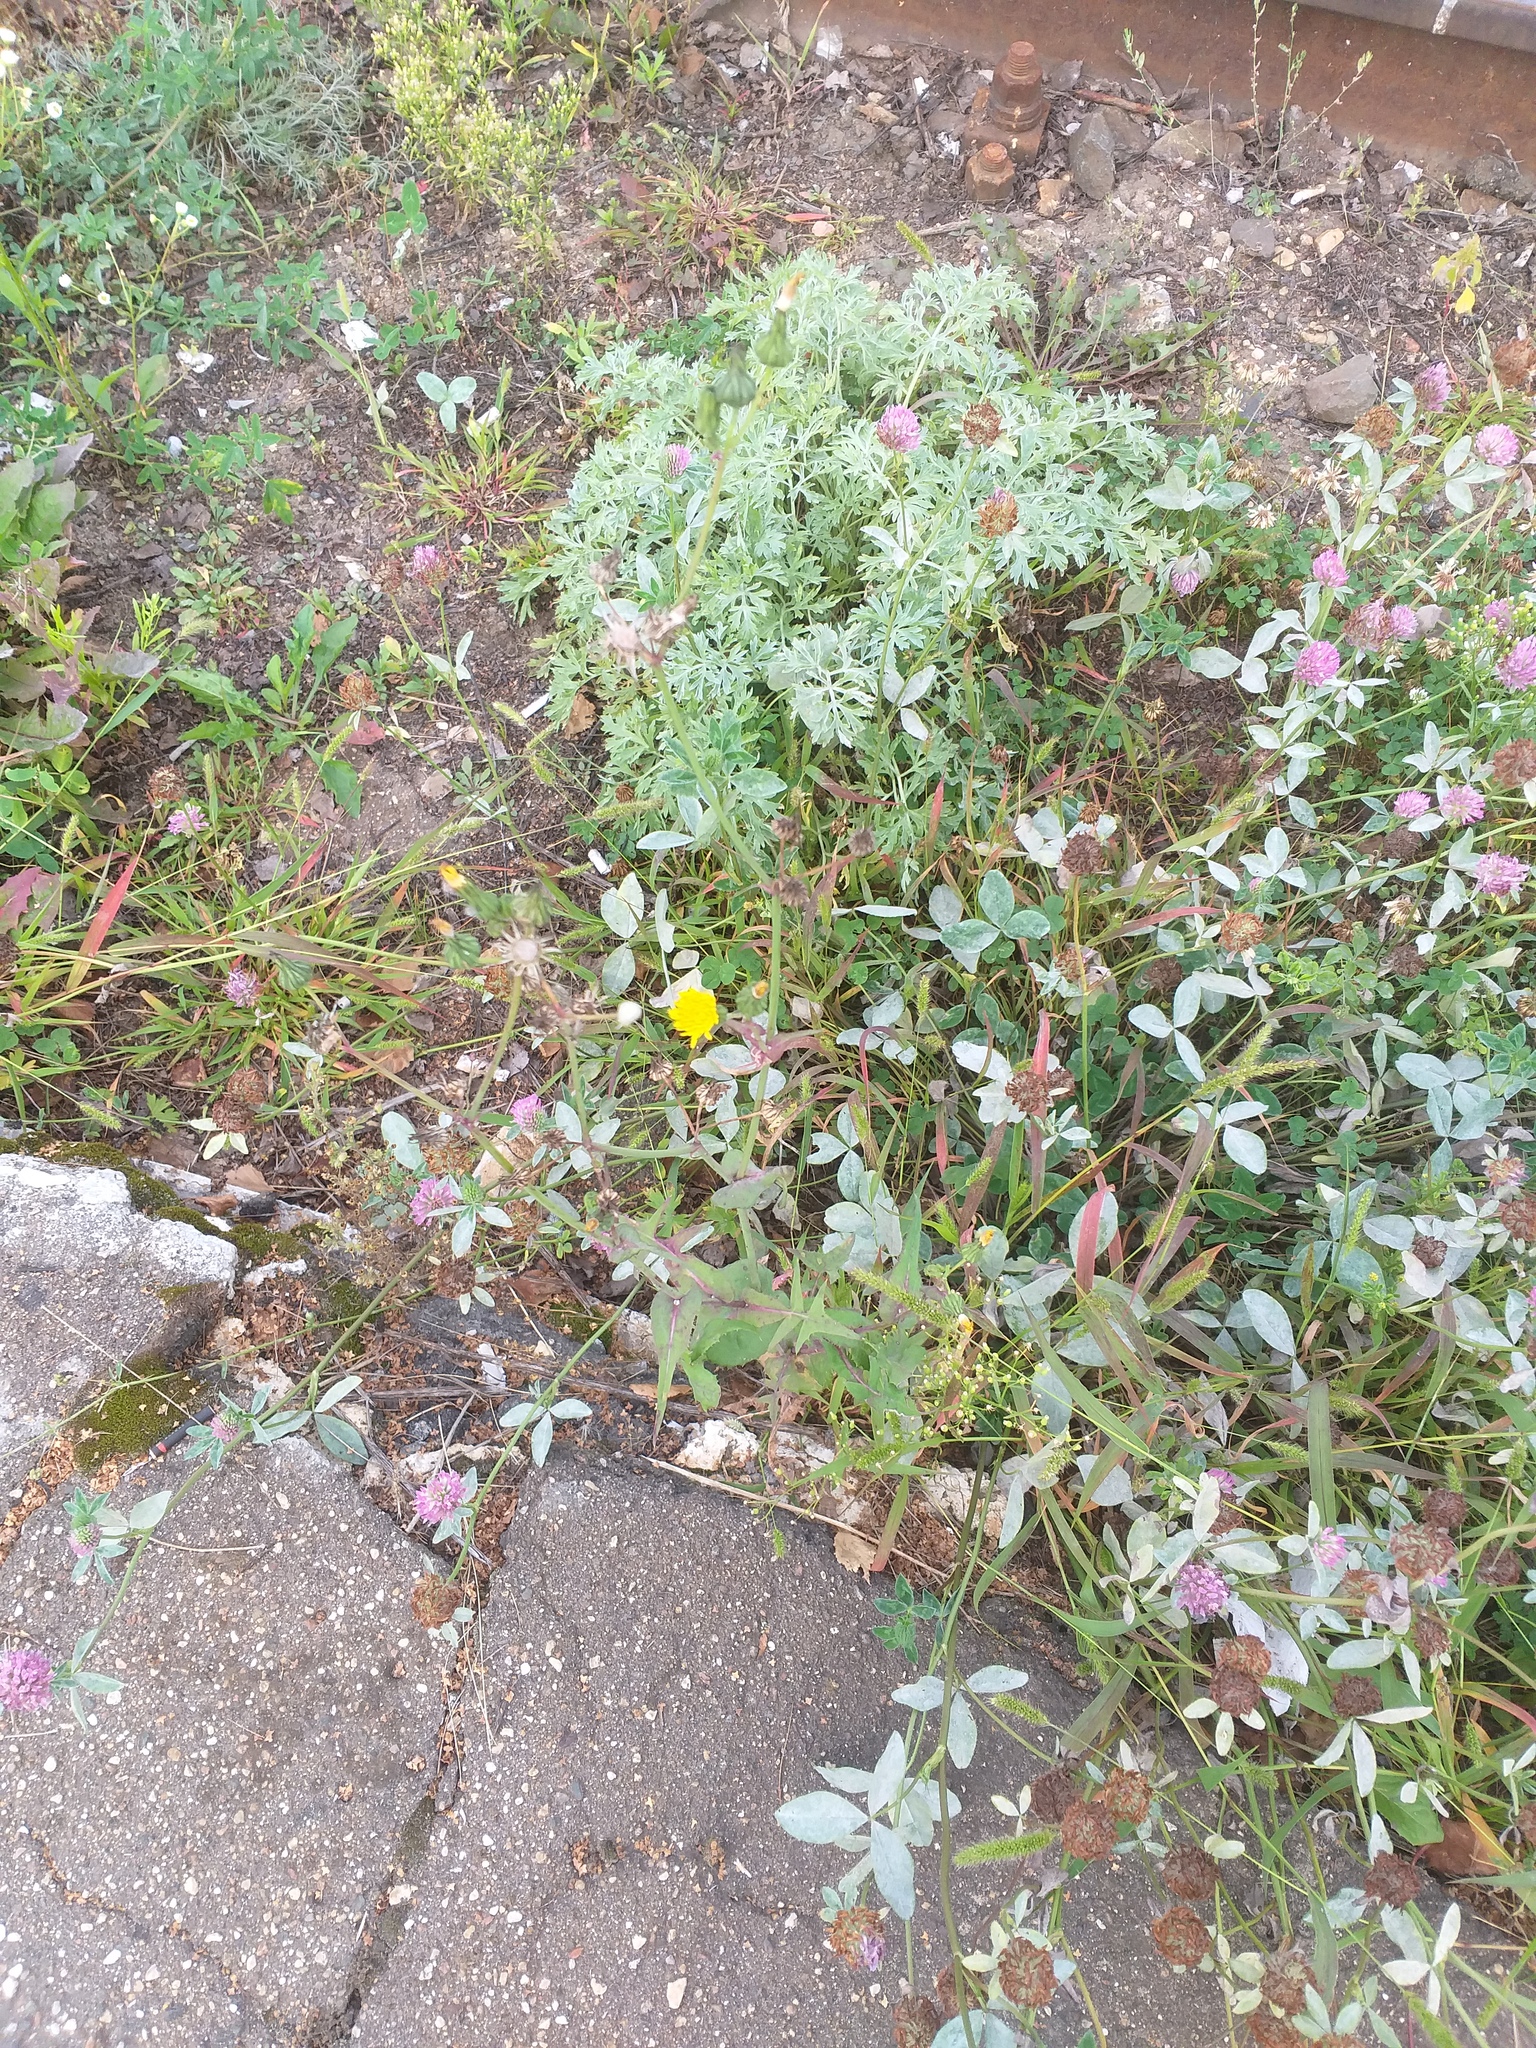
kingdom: Plantae
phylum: Tracheophyta
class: Magnoliopsida
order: Asterales
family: Asteraceae
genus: Sonchus
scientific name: Sonchus oleraceus
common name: Common sowthistle
